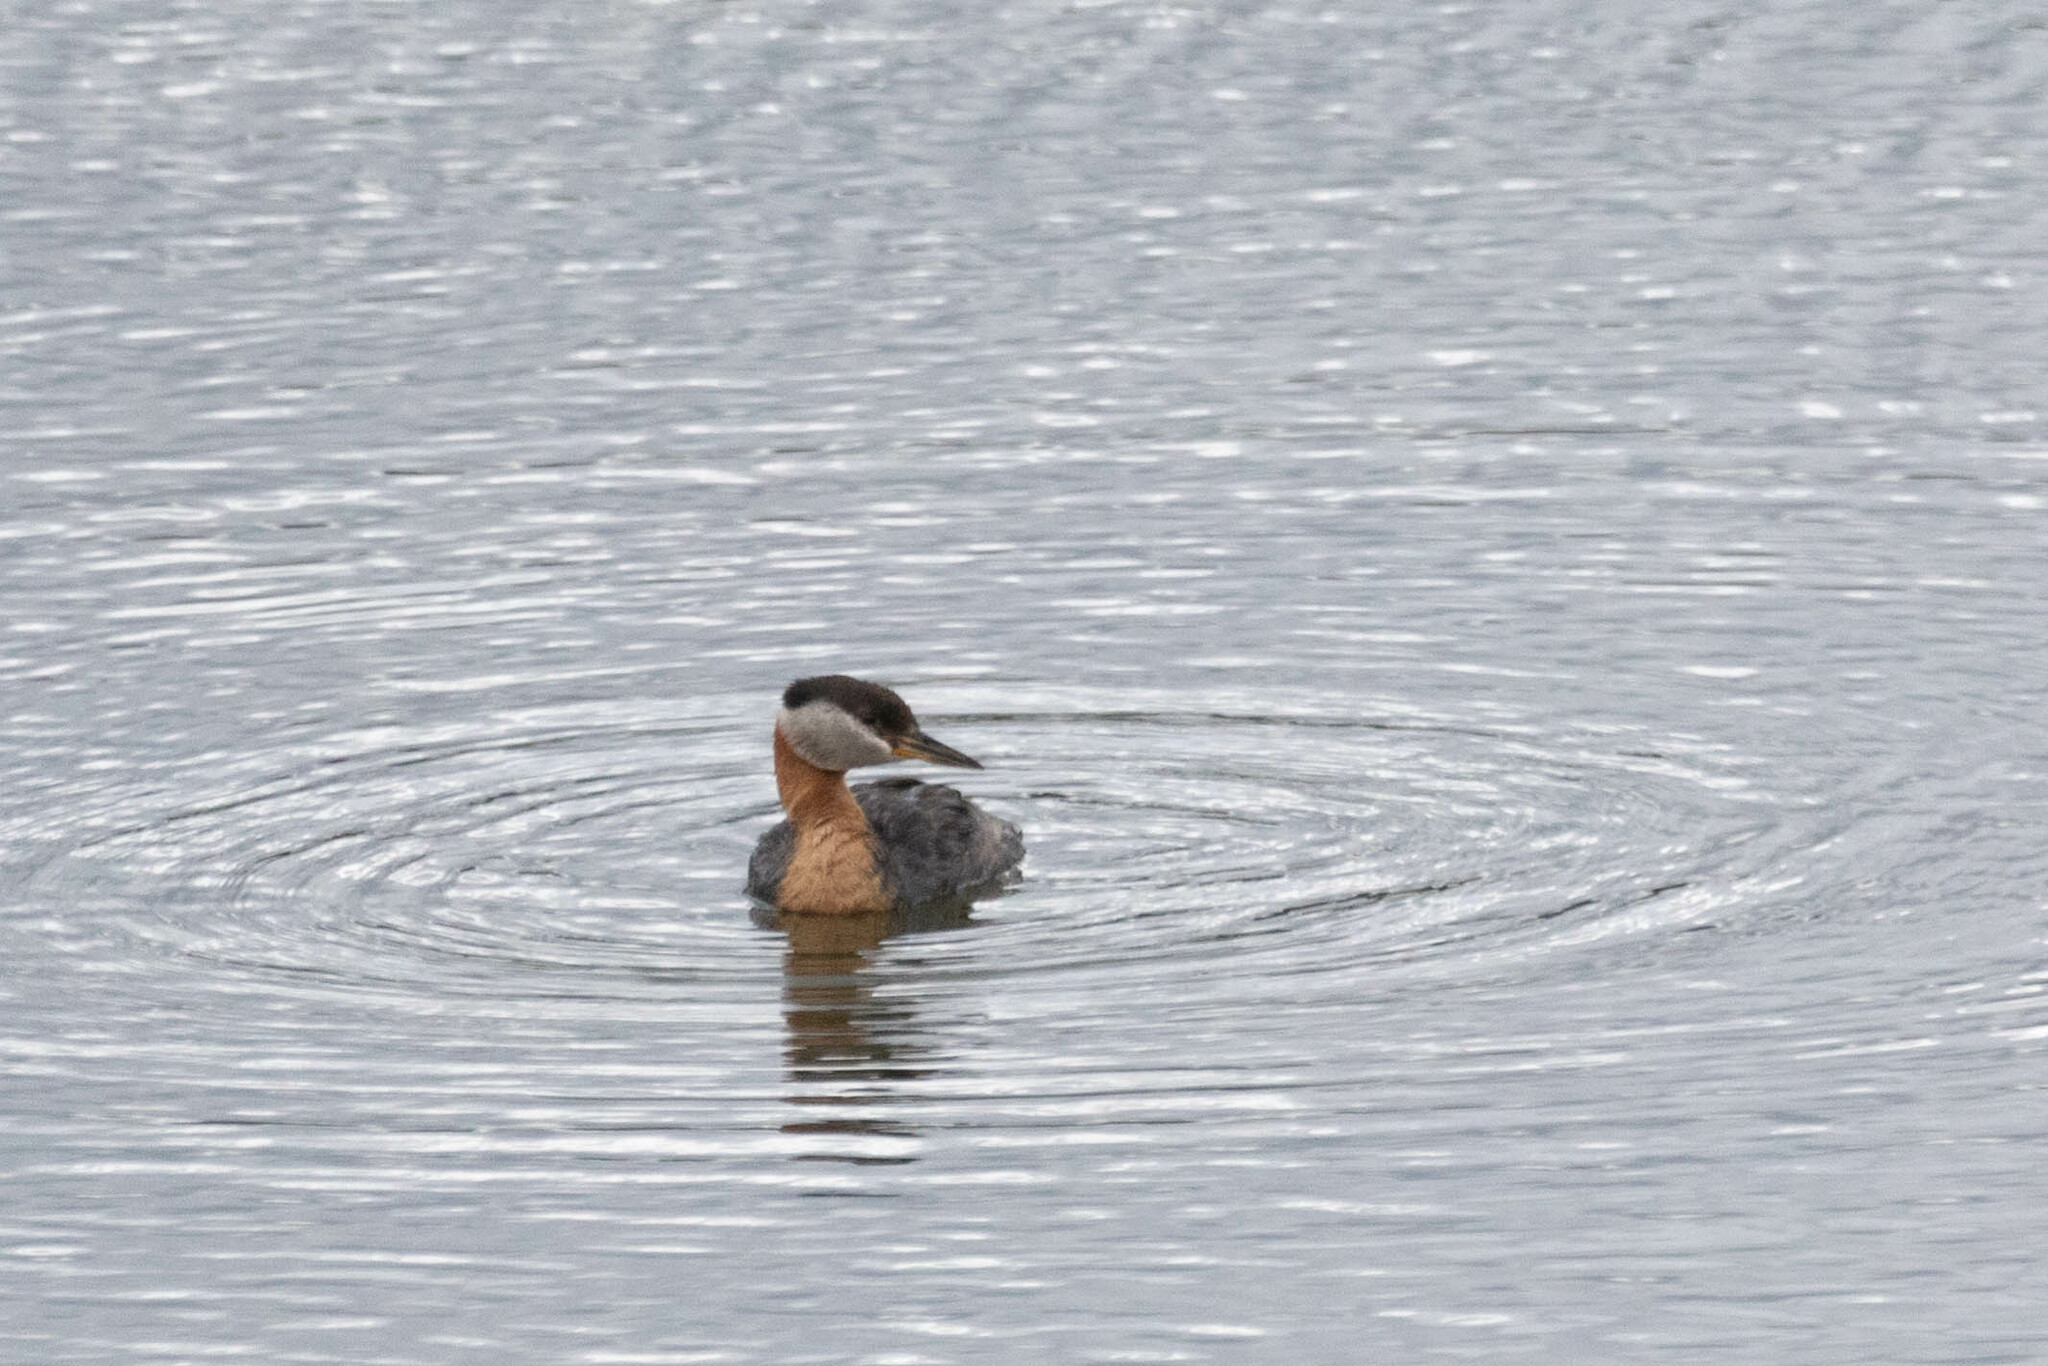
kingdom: Animalia
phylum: Chordata
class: Aves
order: Podicipediformes
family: Podicipedidae
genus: Podiceps
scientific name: Podiceps grisegena
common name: Red-necked grebe
